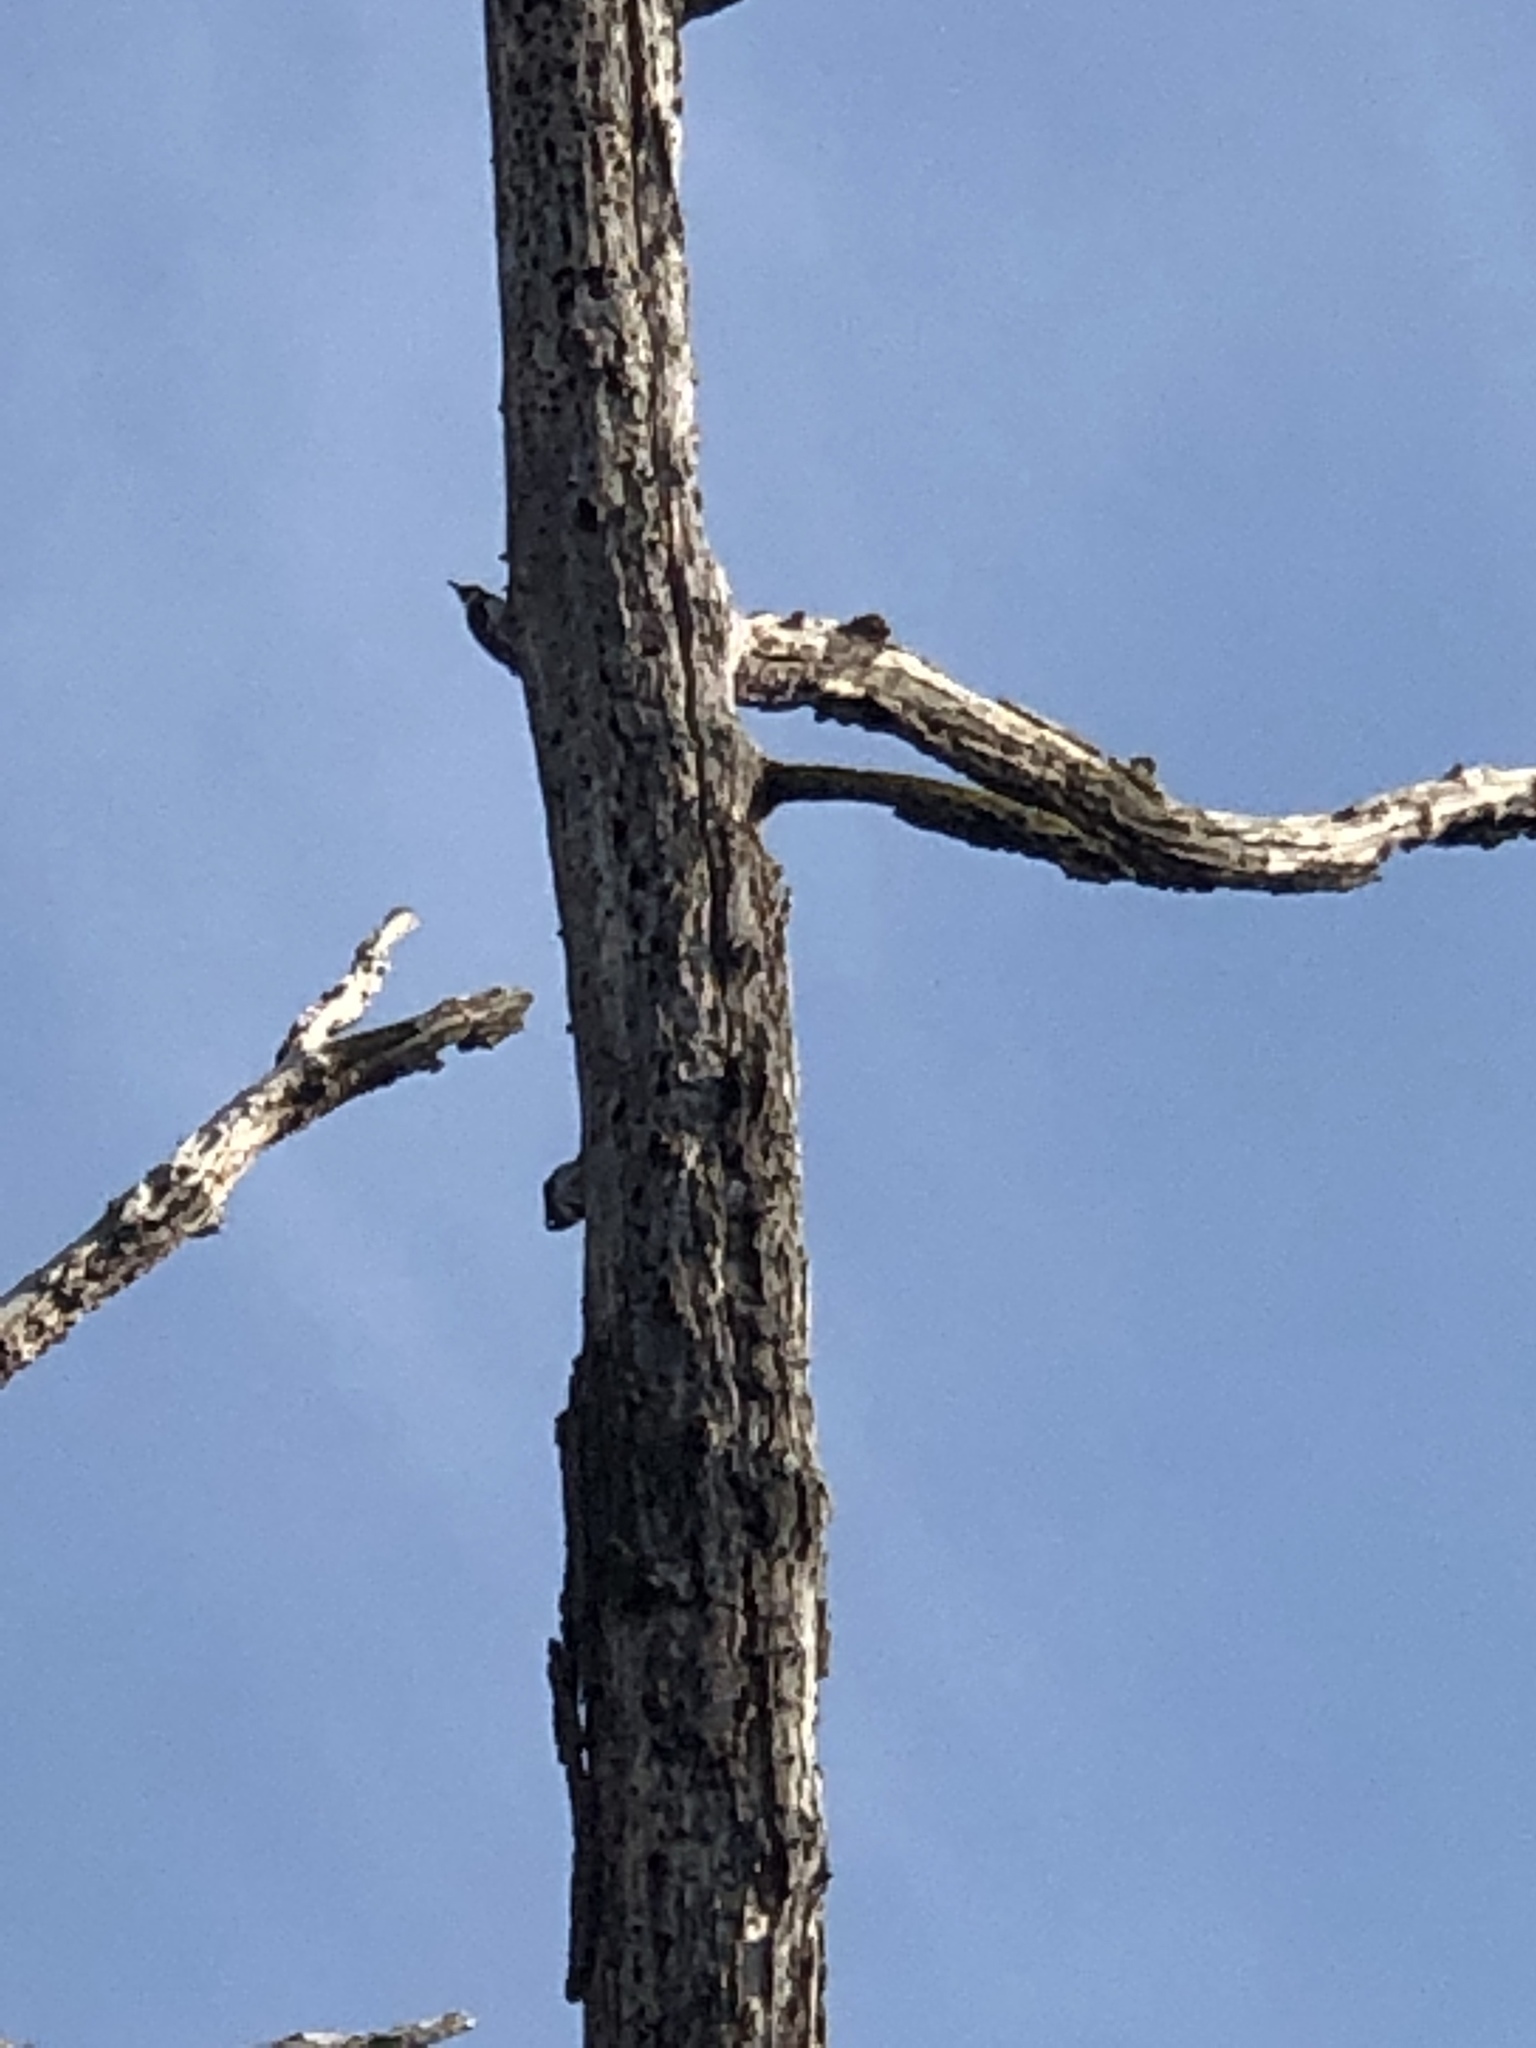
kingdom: Animalia
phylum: Chordata
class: Aves
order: Piciformes
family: Picidae
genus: Melanerpes
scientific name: Melanerpes formicivorus
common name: Acorn woodpecker
